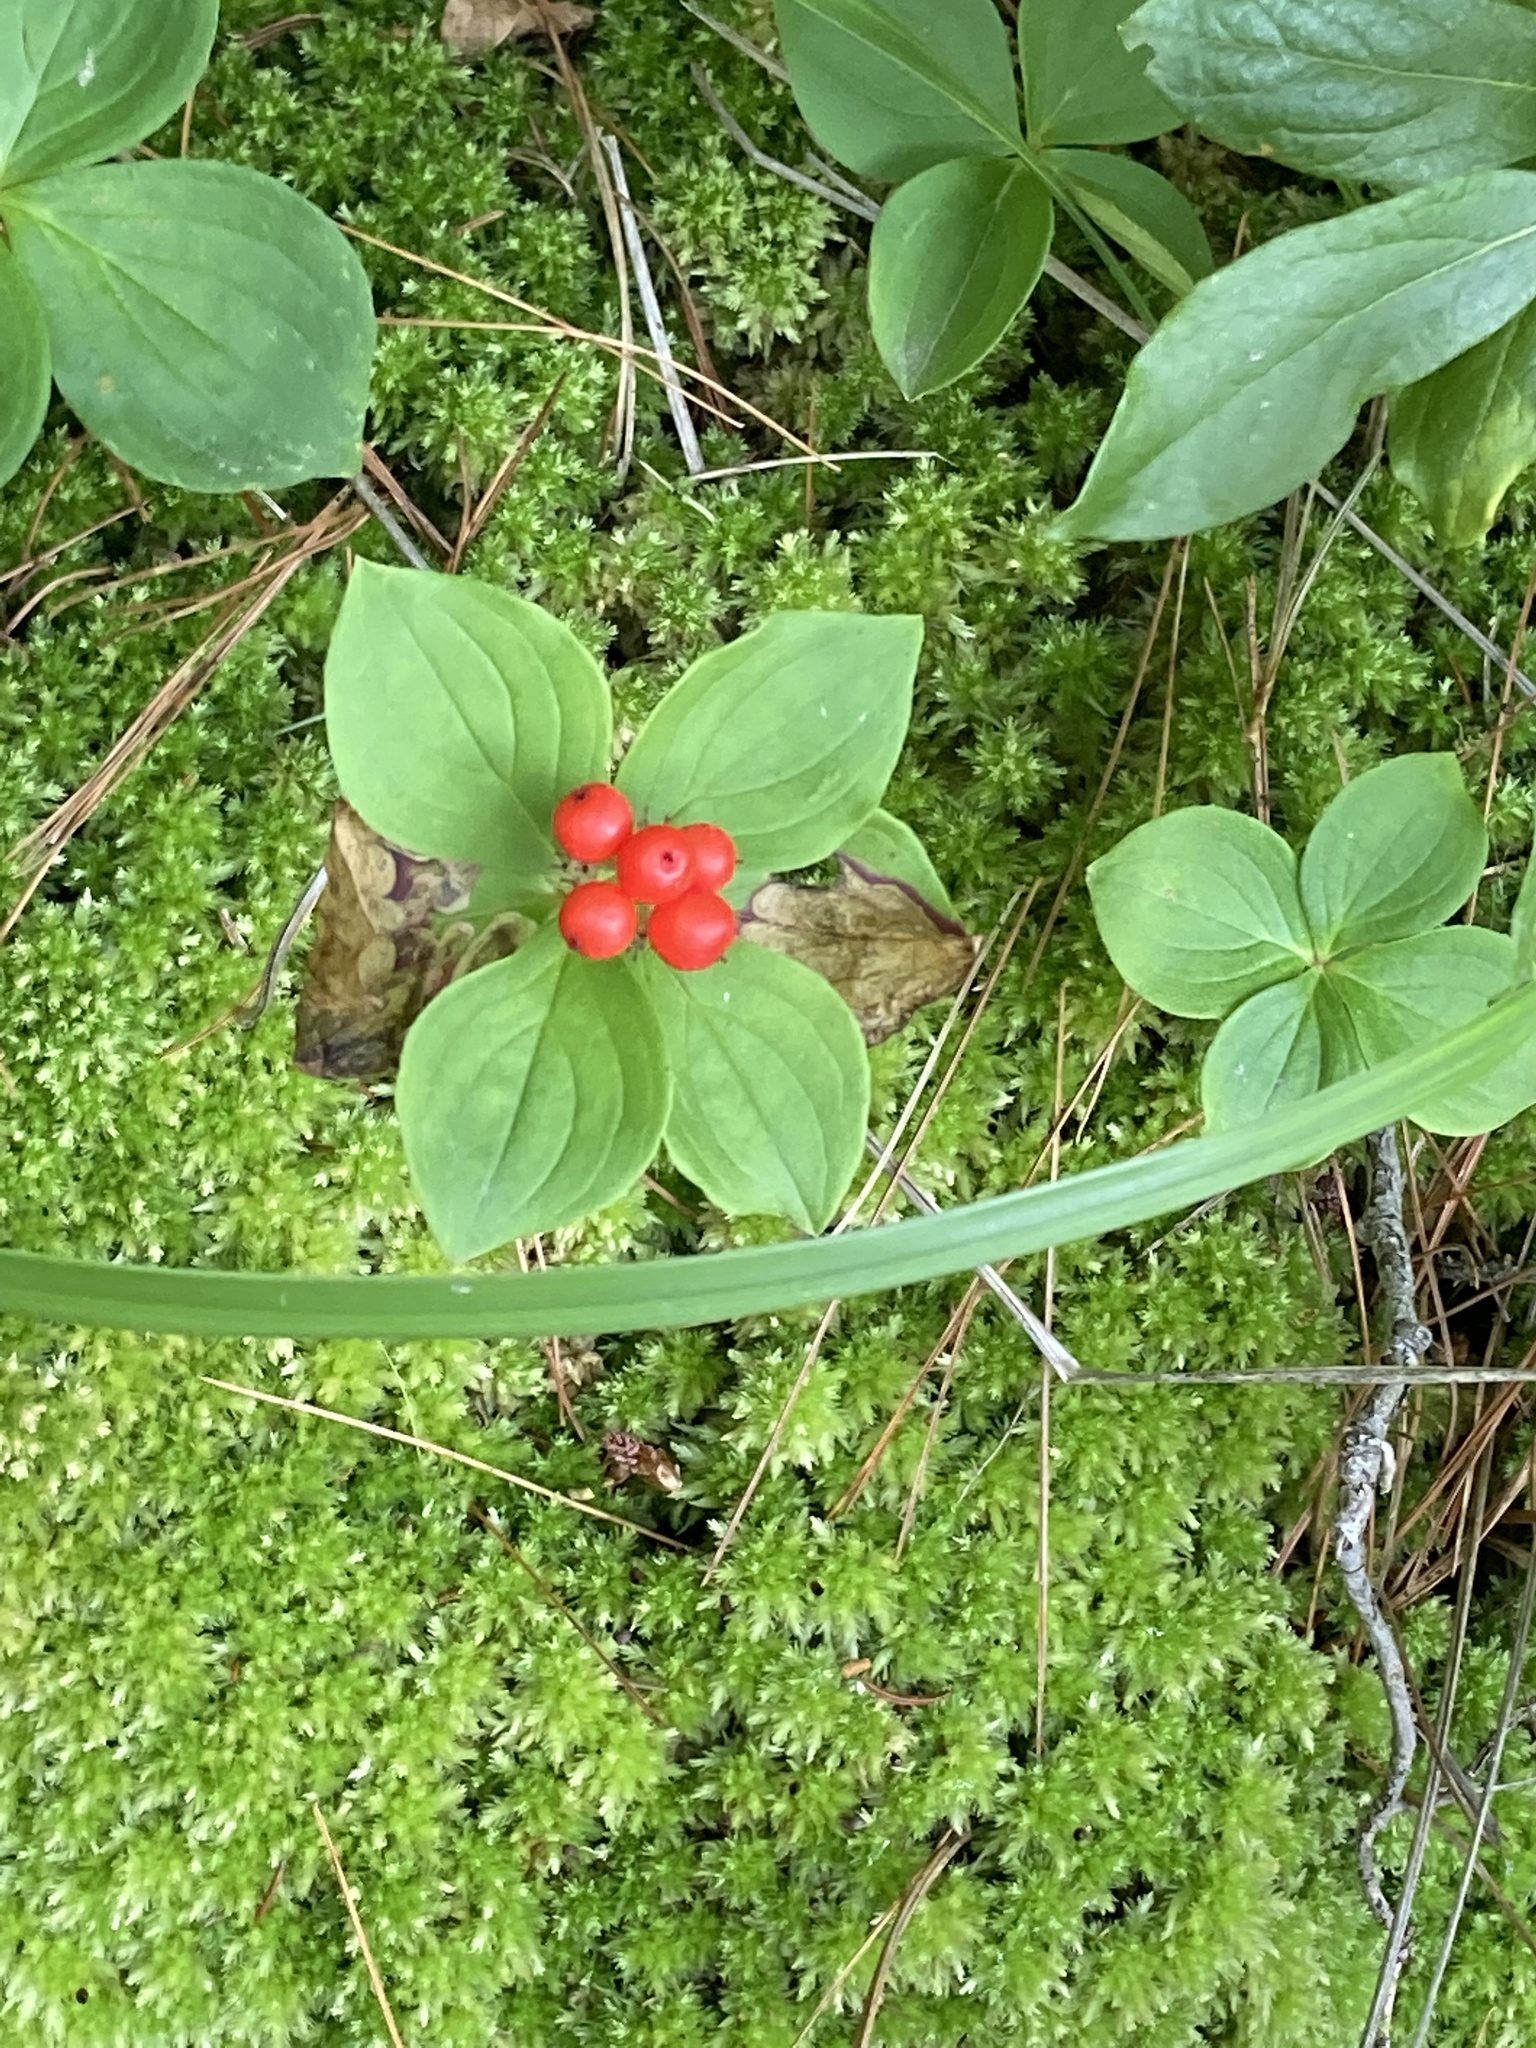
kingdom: Plantae
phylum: Tracheophyta
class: Magnoliopsida
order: Cornales
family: Cornaceae
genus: Cornus
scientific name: Cornus canadensis
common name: Creeping dogwood
